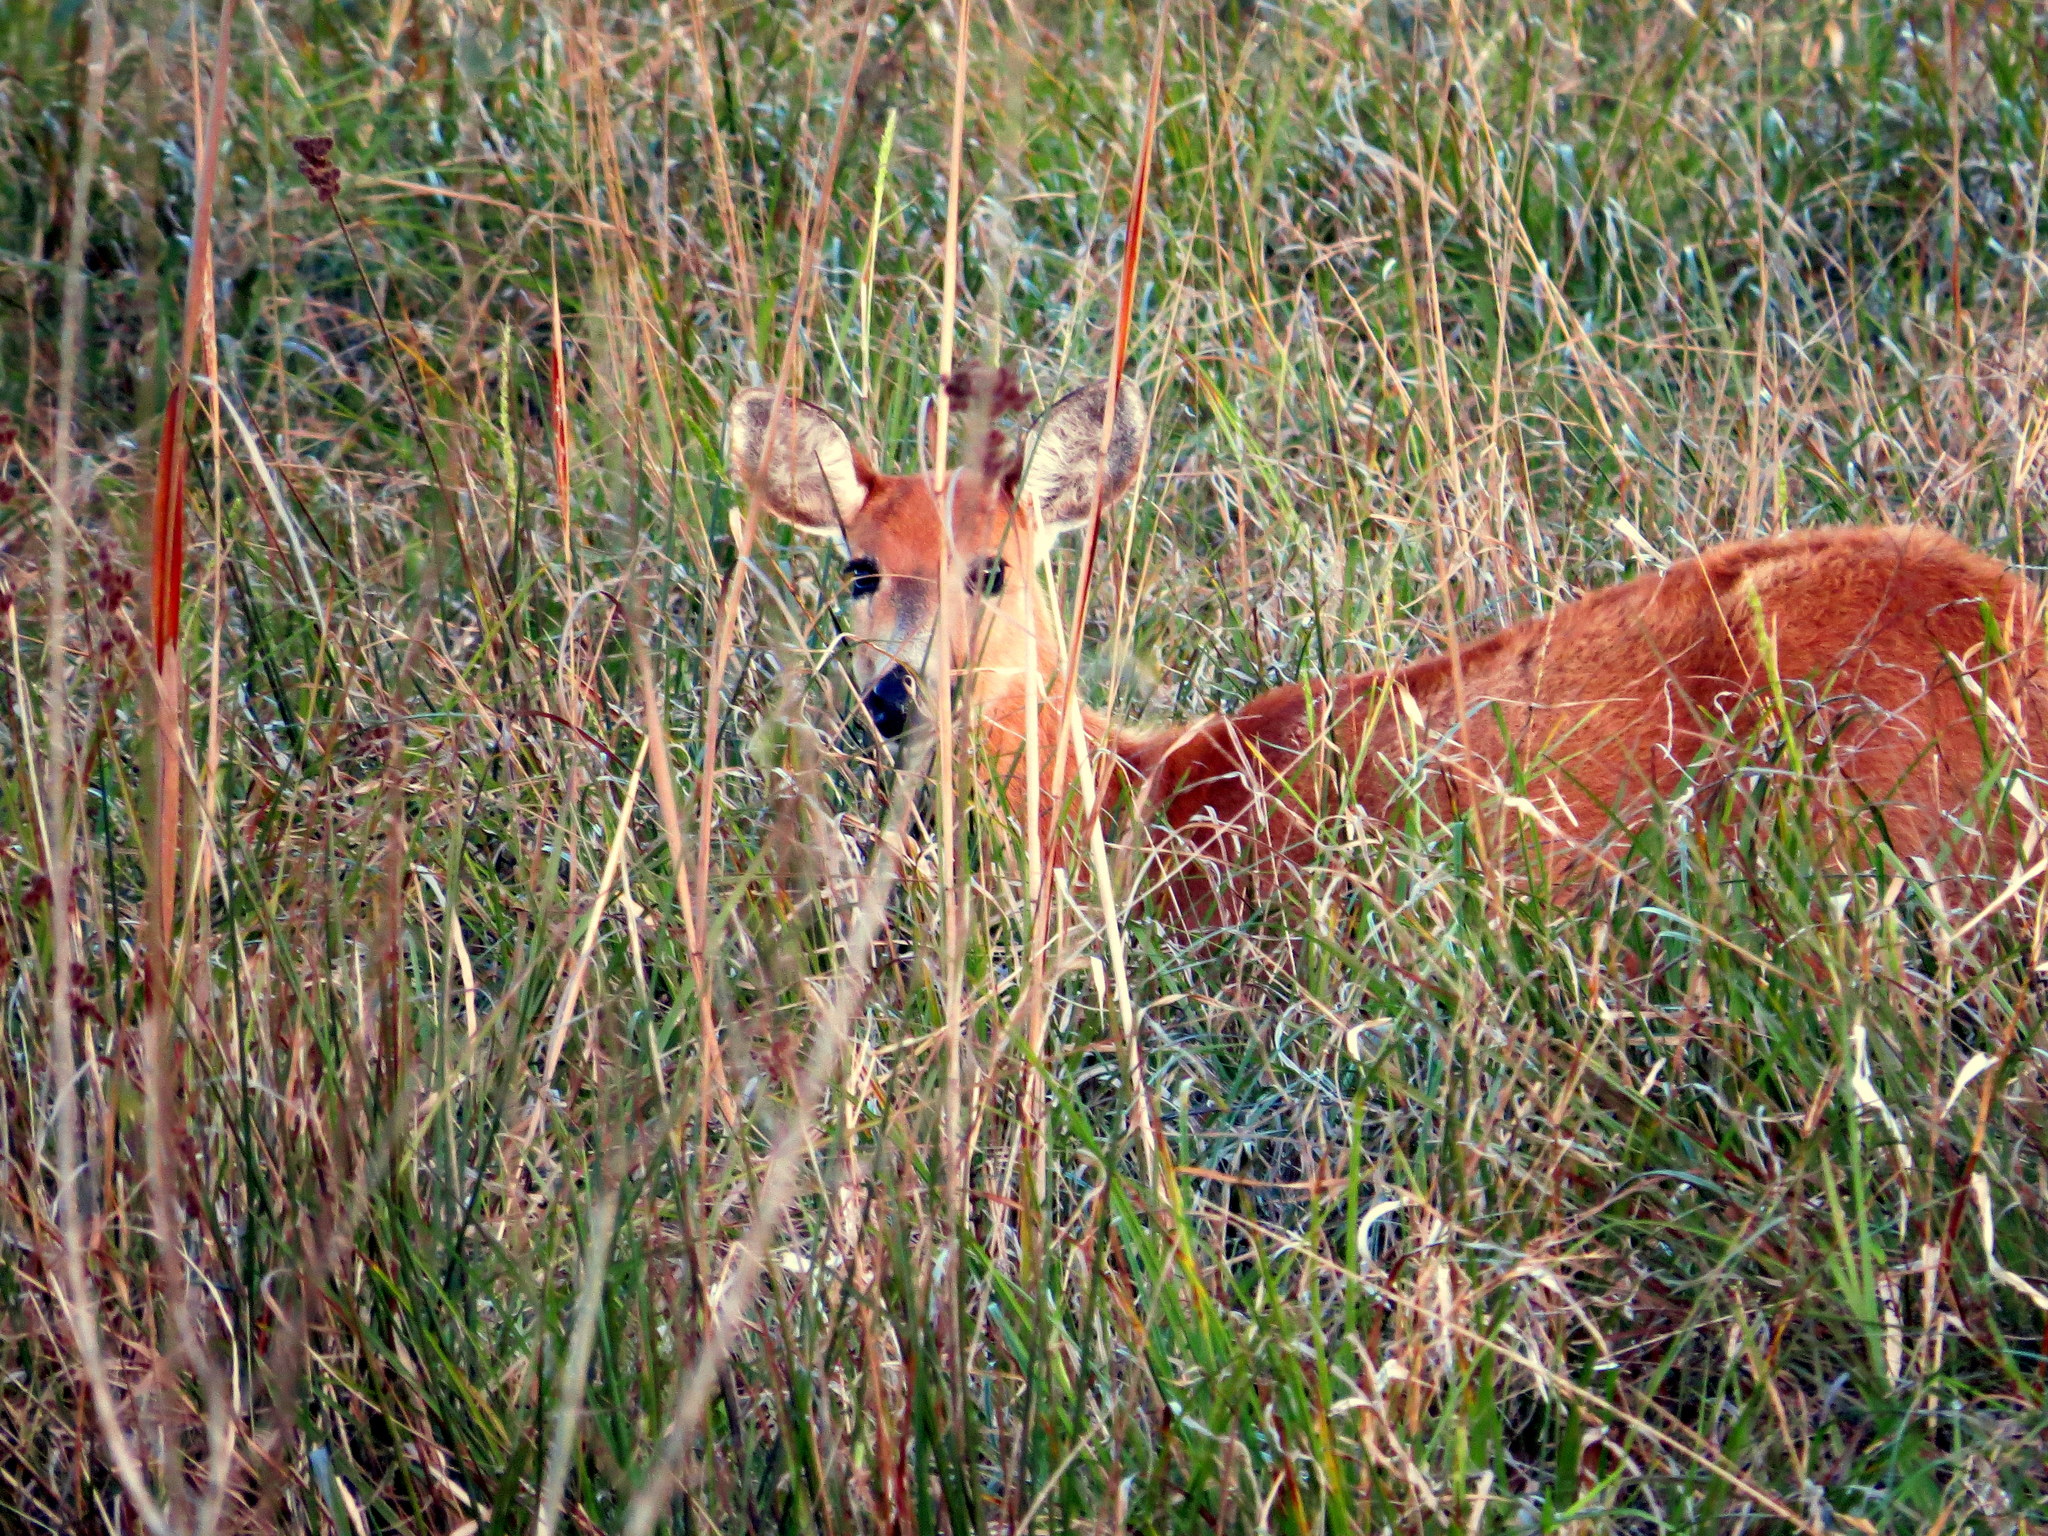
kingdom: Animalia
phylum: Chordata
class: Mammalia
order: Artiodactyla
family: Cervidae
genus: Blastocerus
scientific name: Blastocerus dichotomus
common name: Marsh deer
